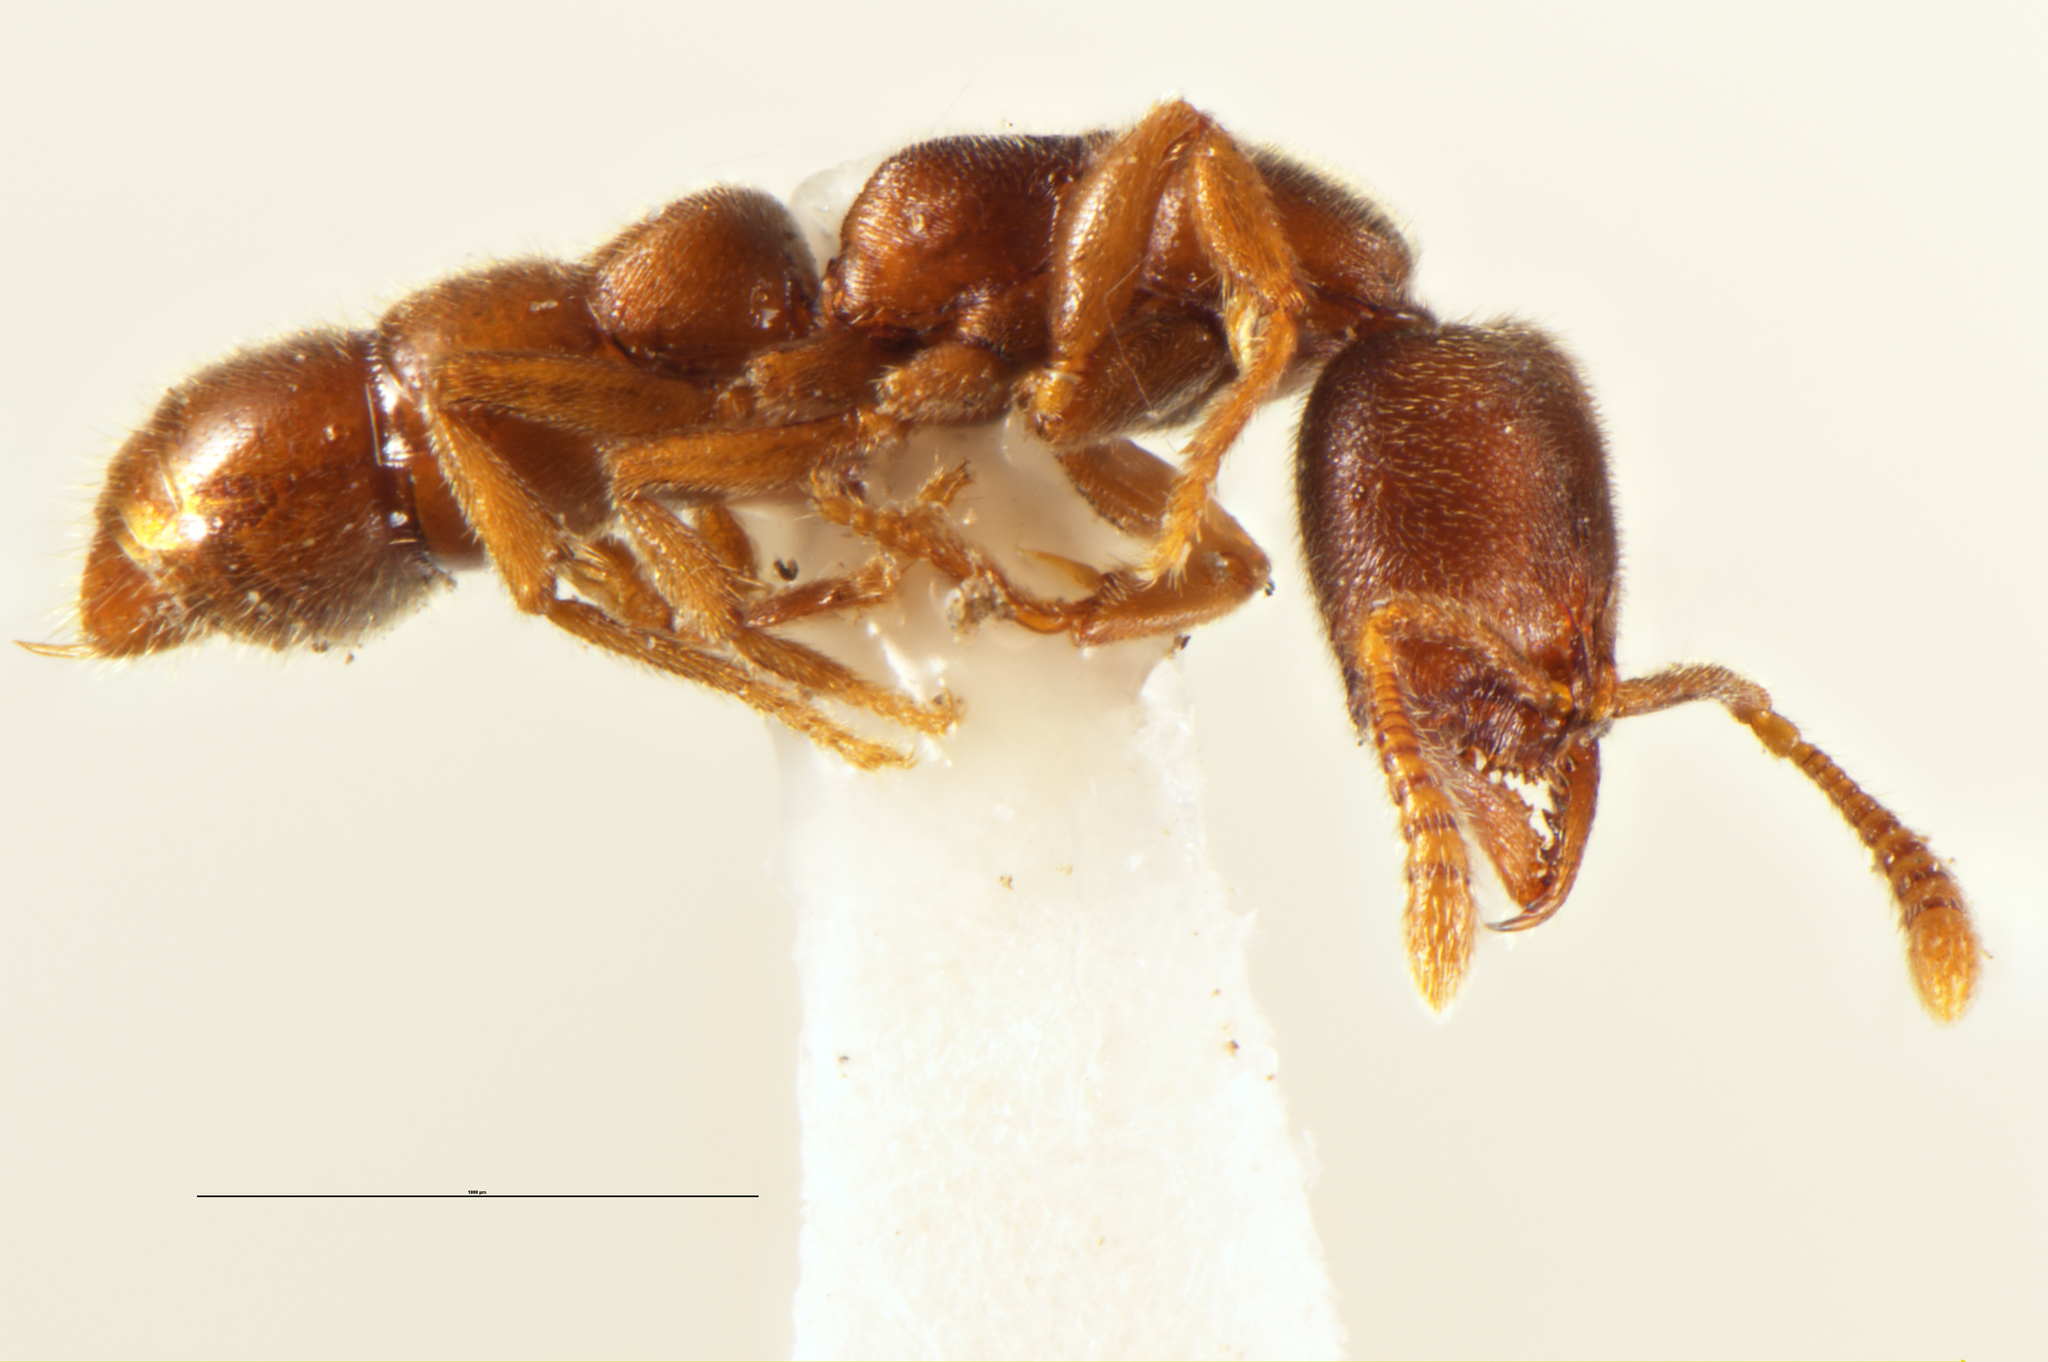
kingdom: Animalia
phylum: Arthropoda
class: Insecta
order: Hymenoptera
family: Formicidae
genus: Fulakora
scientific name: Fulakora
